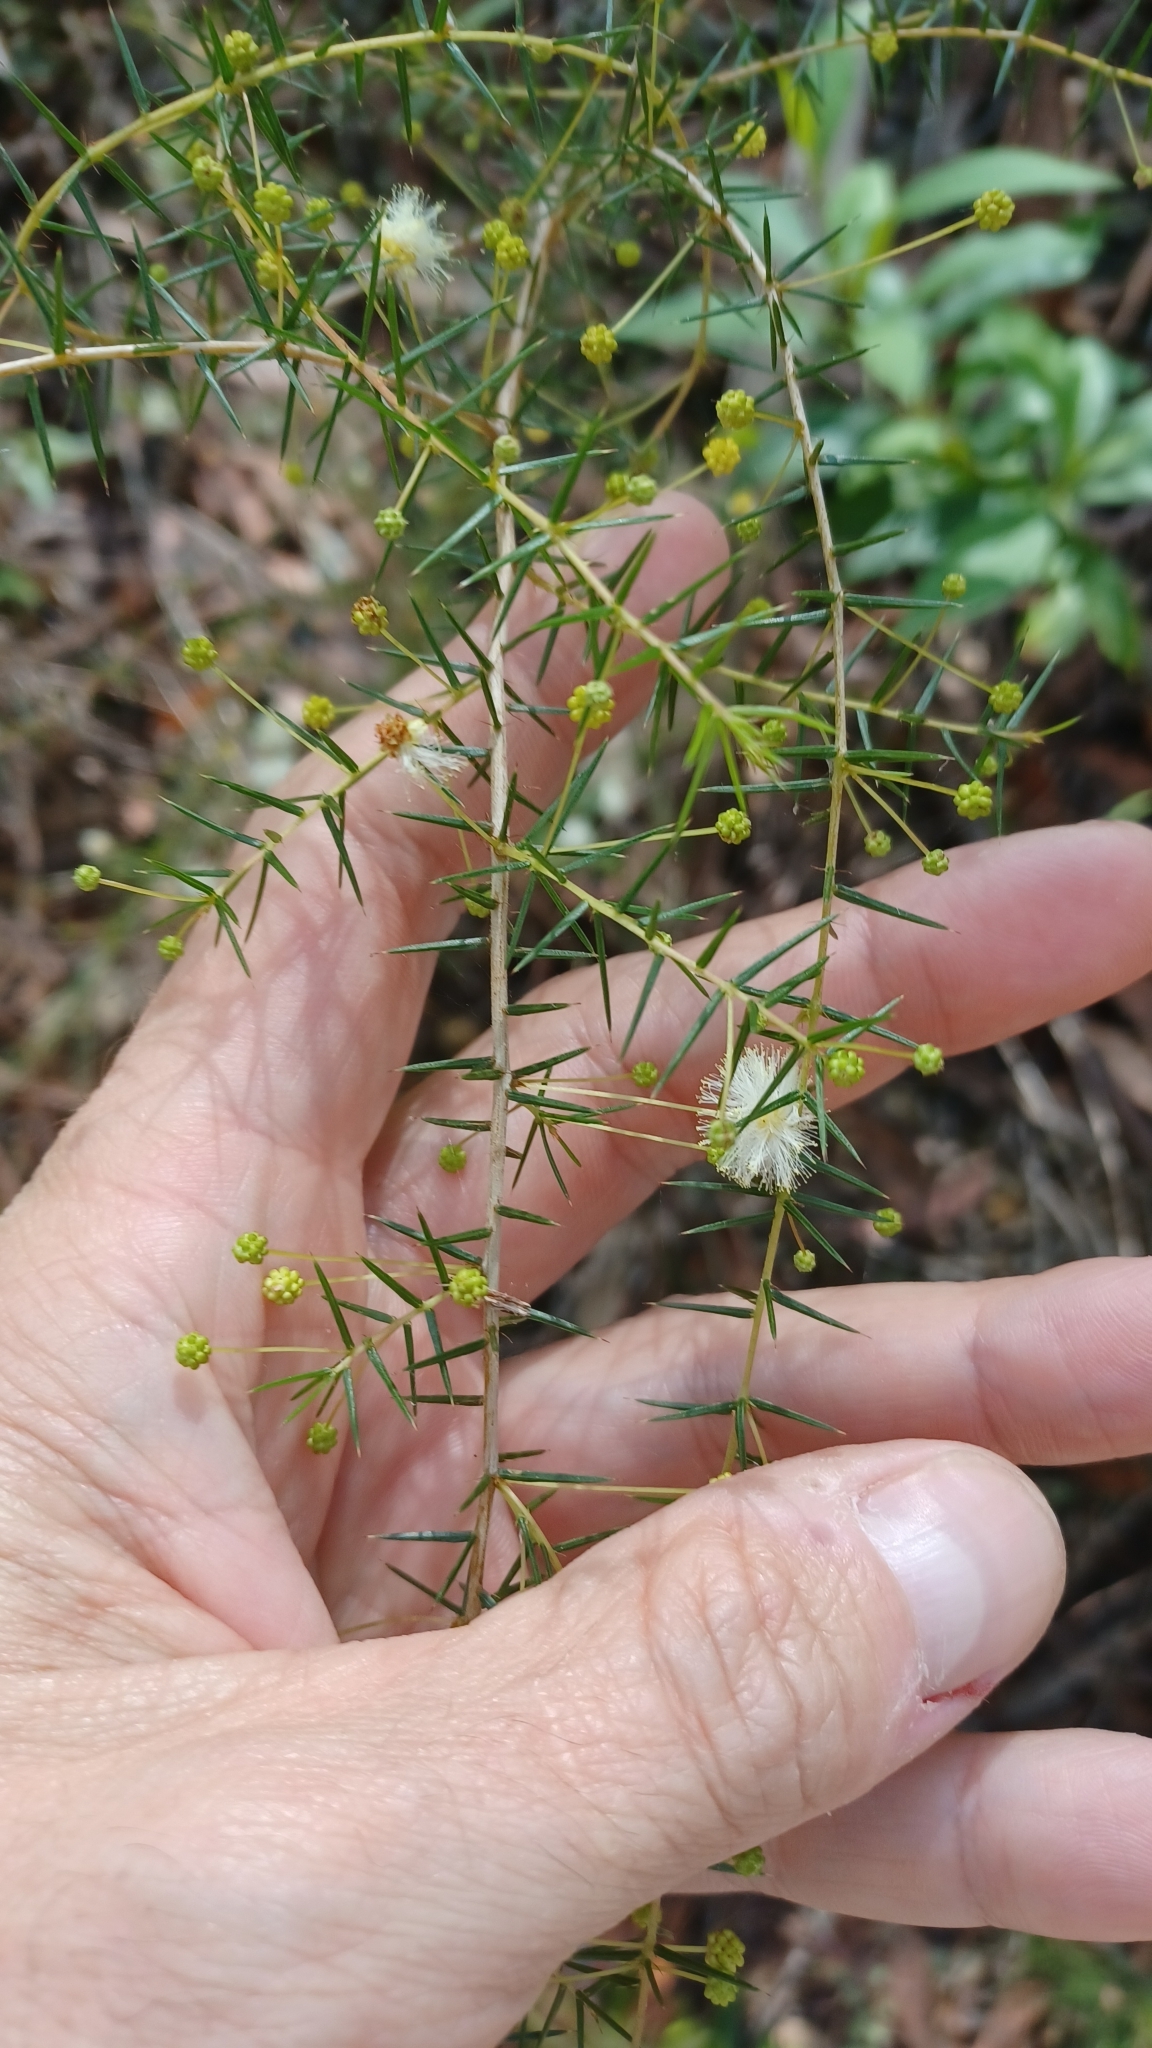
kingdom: Plantae
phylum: Tracheophyta
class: Magnoliopsida
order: Fabales
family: Fabaceae
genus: Acacia
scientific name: Acacia ulicifolia
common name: Juniper wattle
